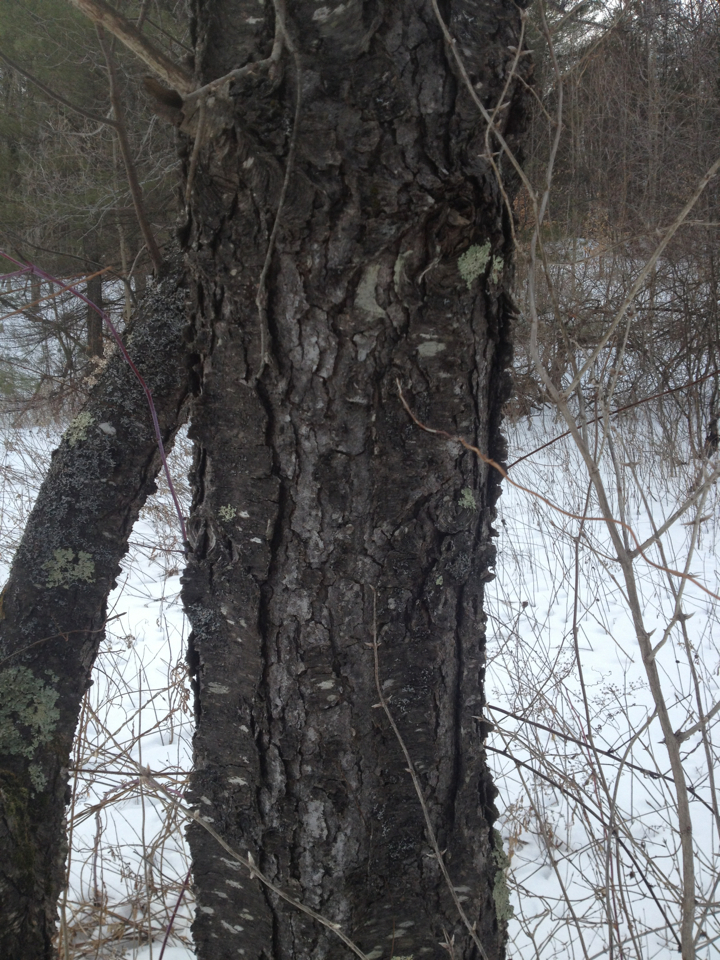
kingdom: Plantae
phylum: Tracheophyta
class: Magnoliopsida
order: Rosales
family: Rosaceae
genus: Prunus
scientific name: Prunus serotina
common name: Black cherry
